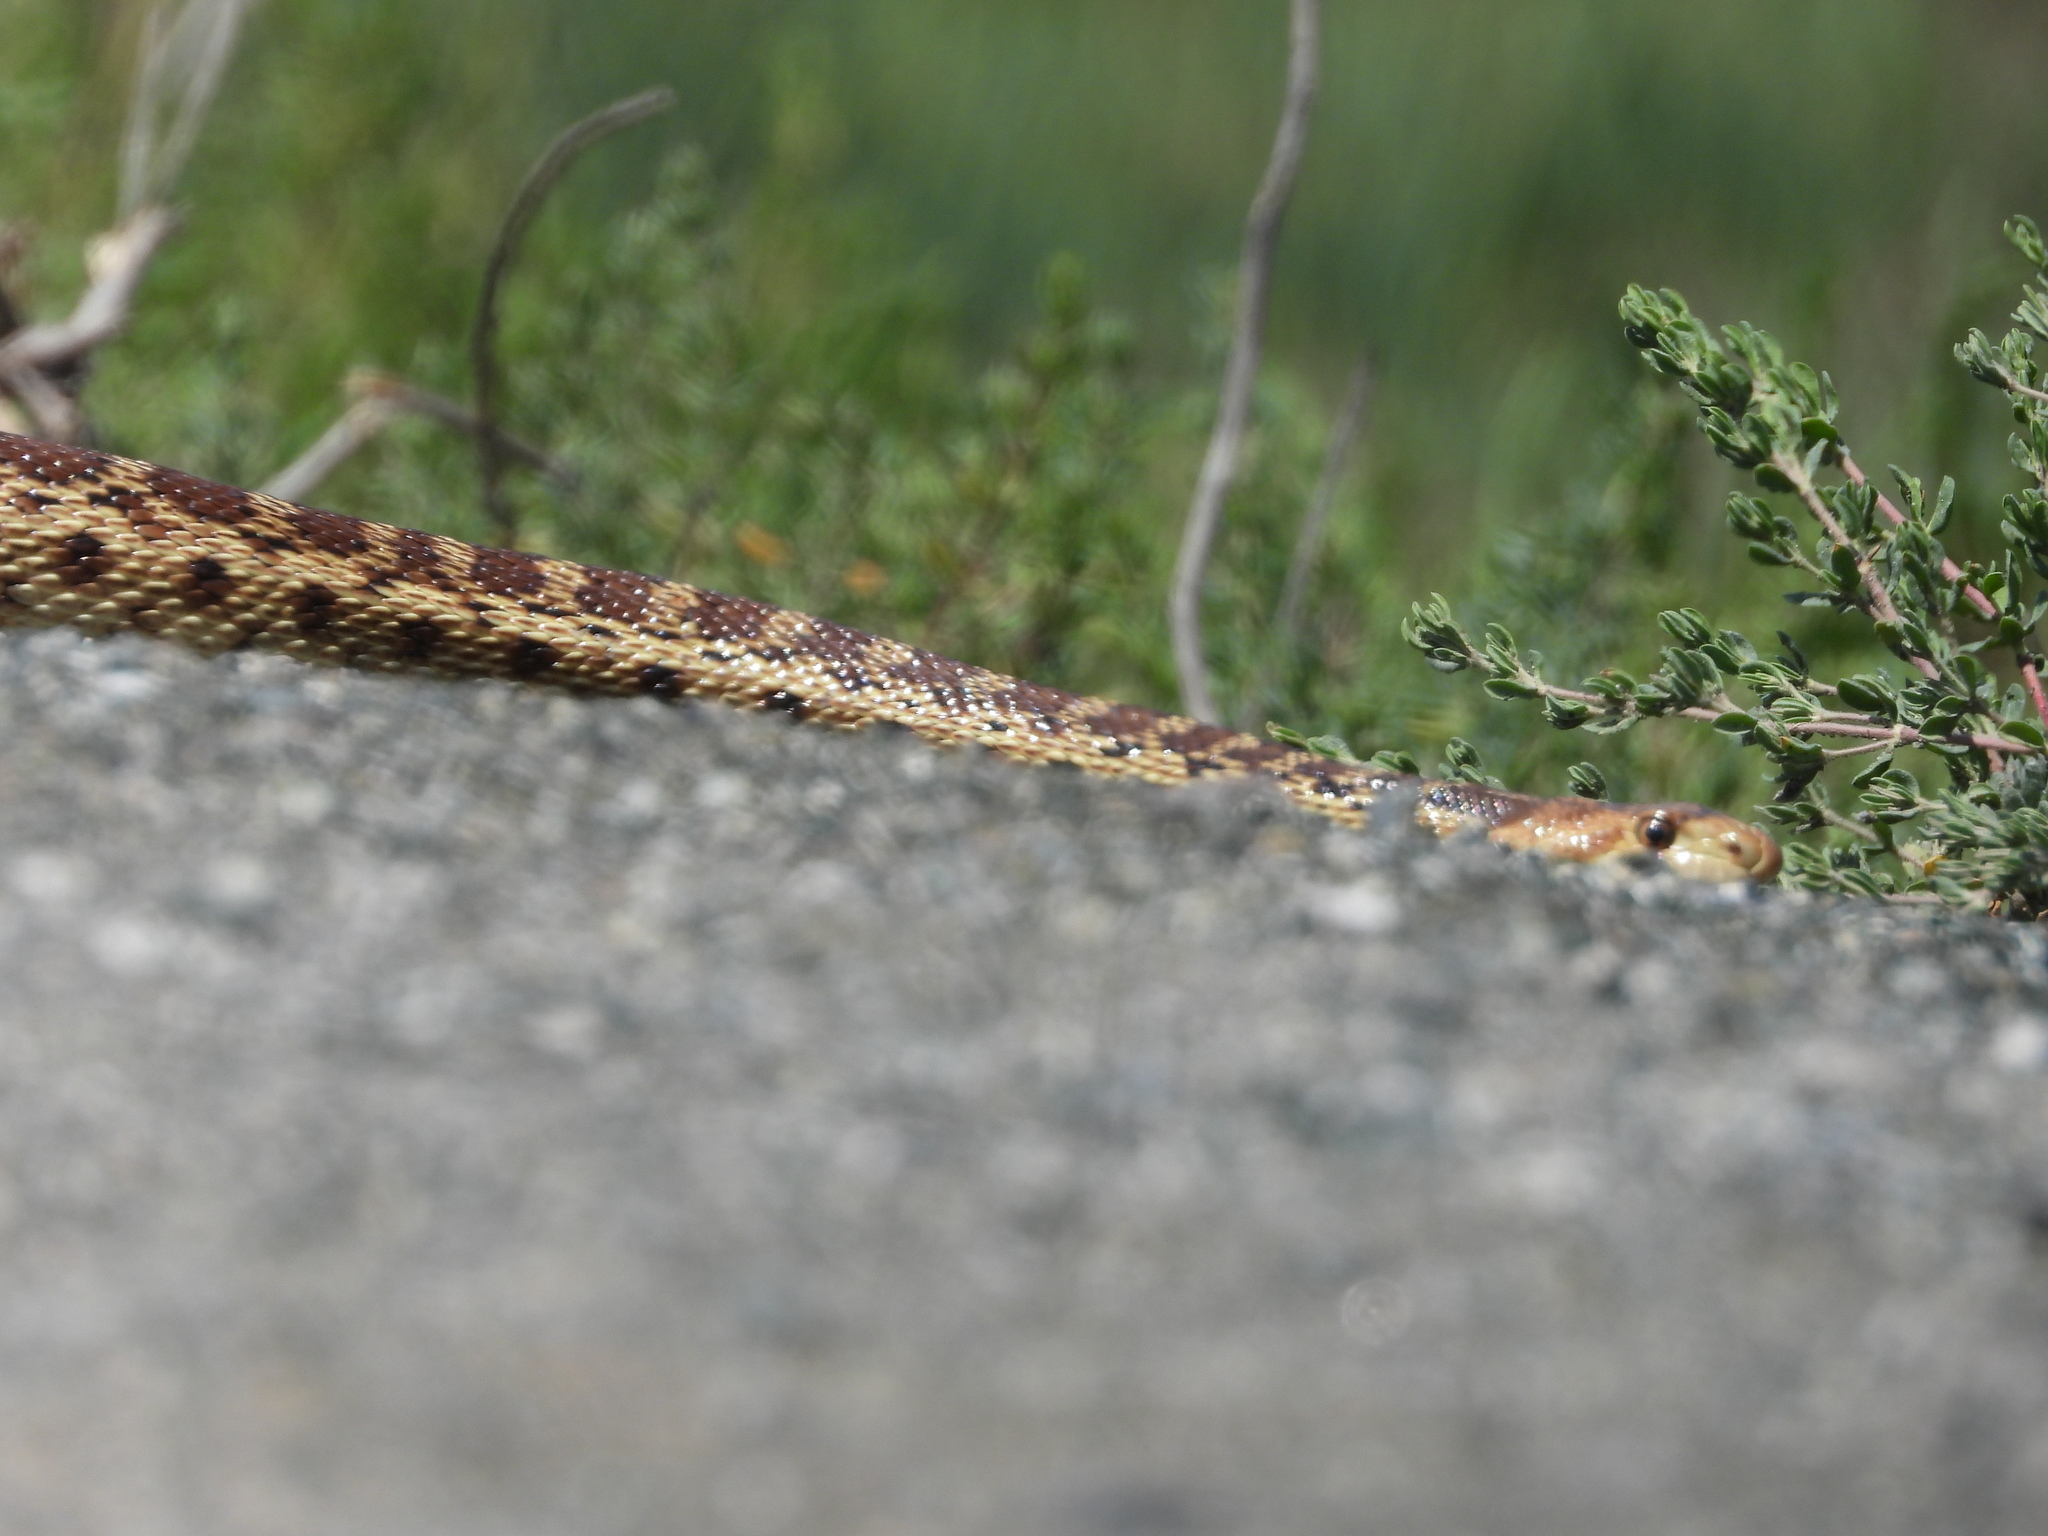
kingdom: Animalia
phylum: Chordata
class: Squamata
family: Colubridae
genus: Pituophis
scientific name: Pituophis catenifer
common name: Gopher snake
